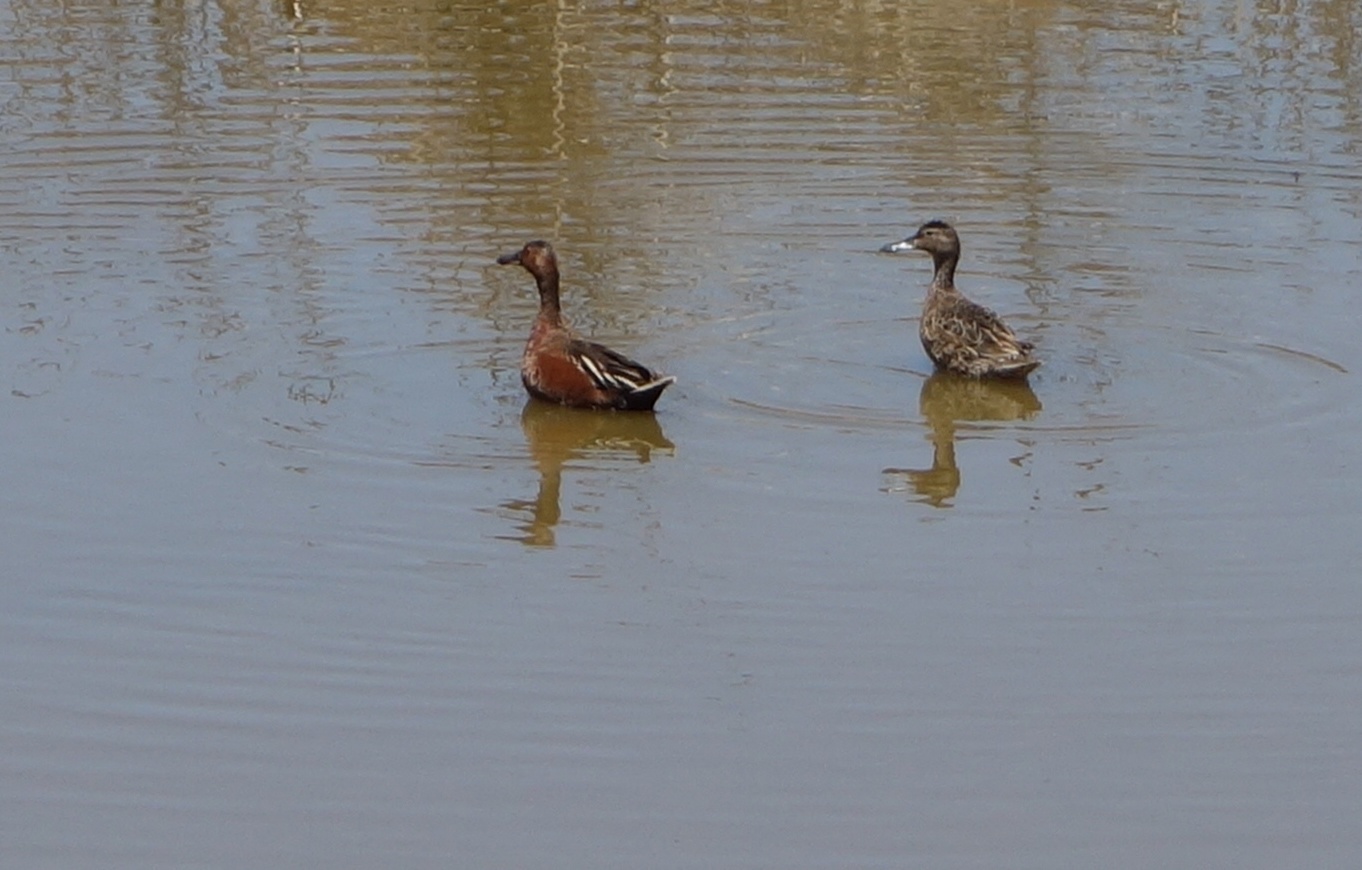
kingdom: Animalia
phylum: Chordata
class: Aves
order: Anseriformes
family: Anatidae
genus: Spatula
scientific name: Spatula cyanoptera
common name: Cinnamon teal
